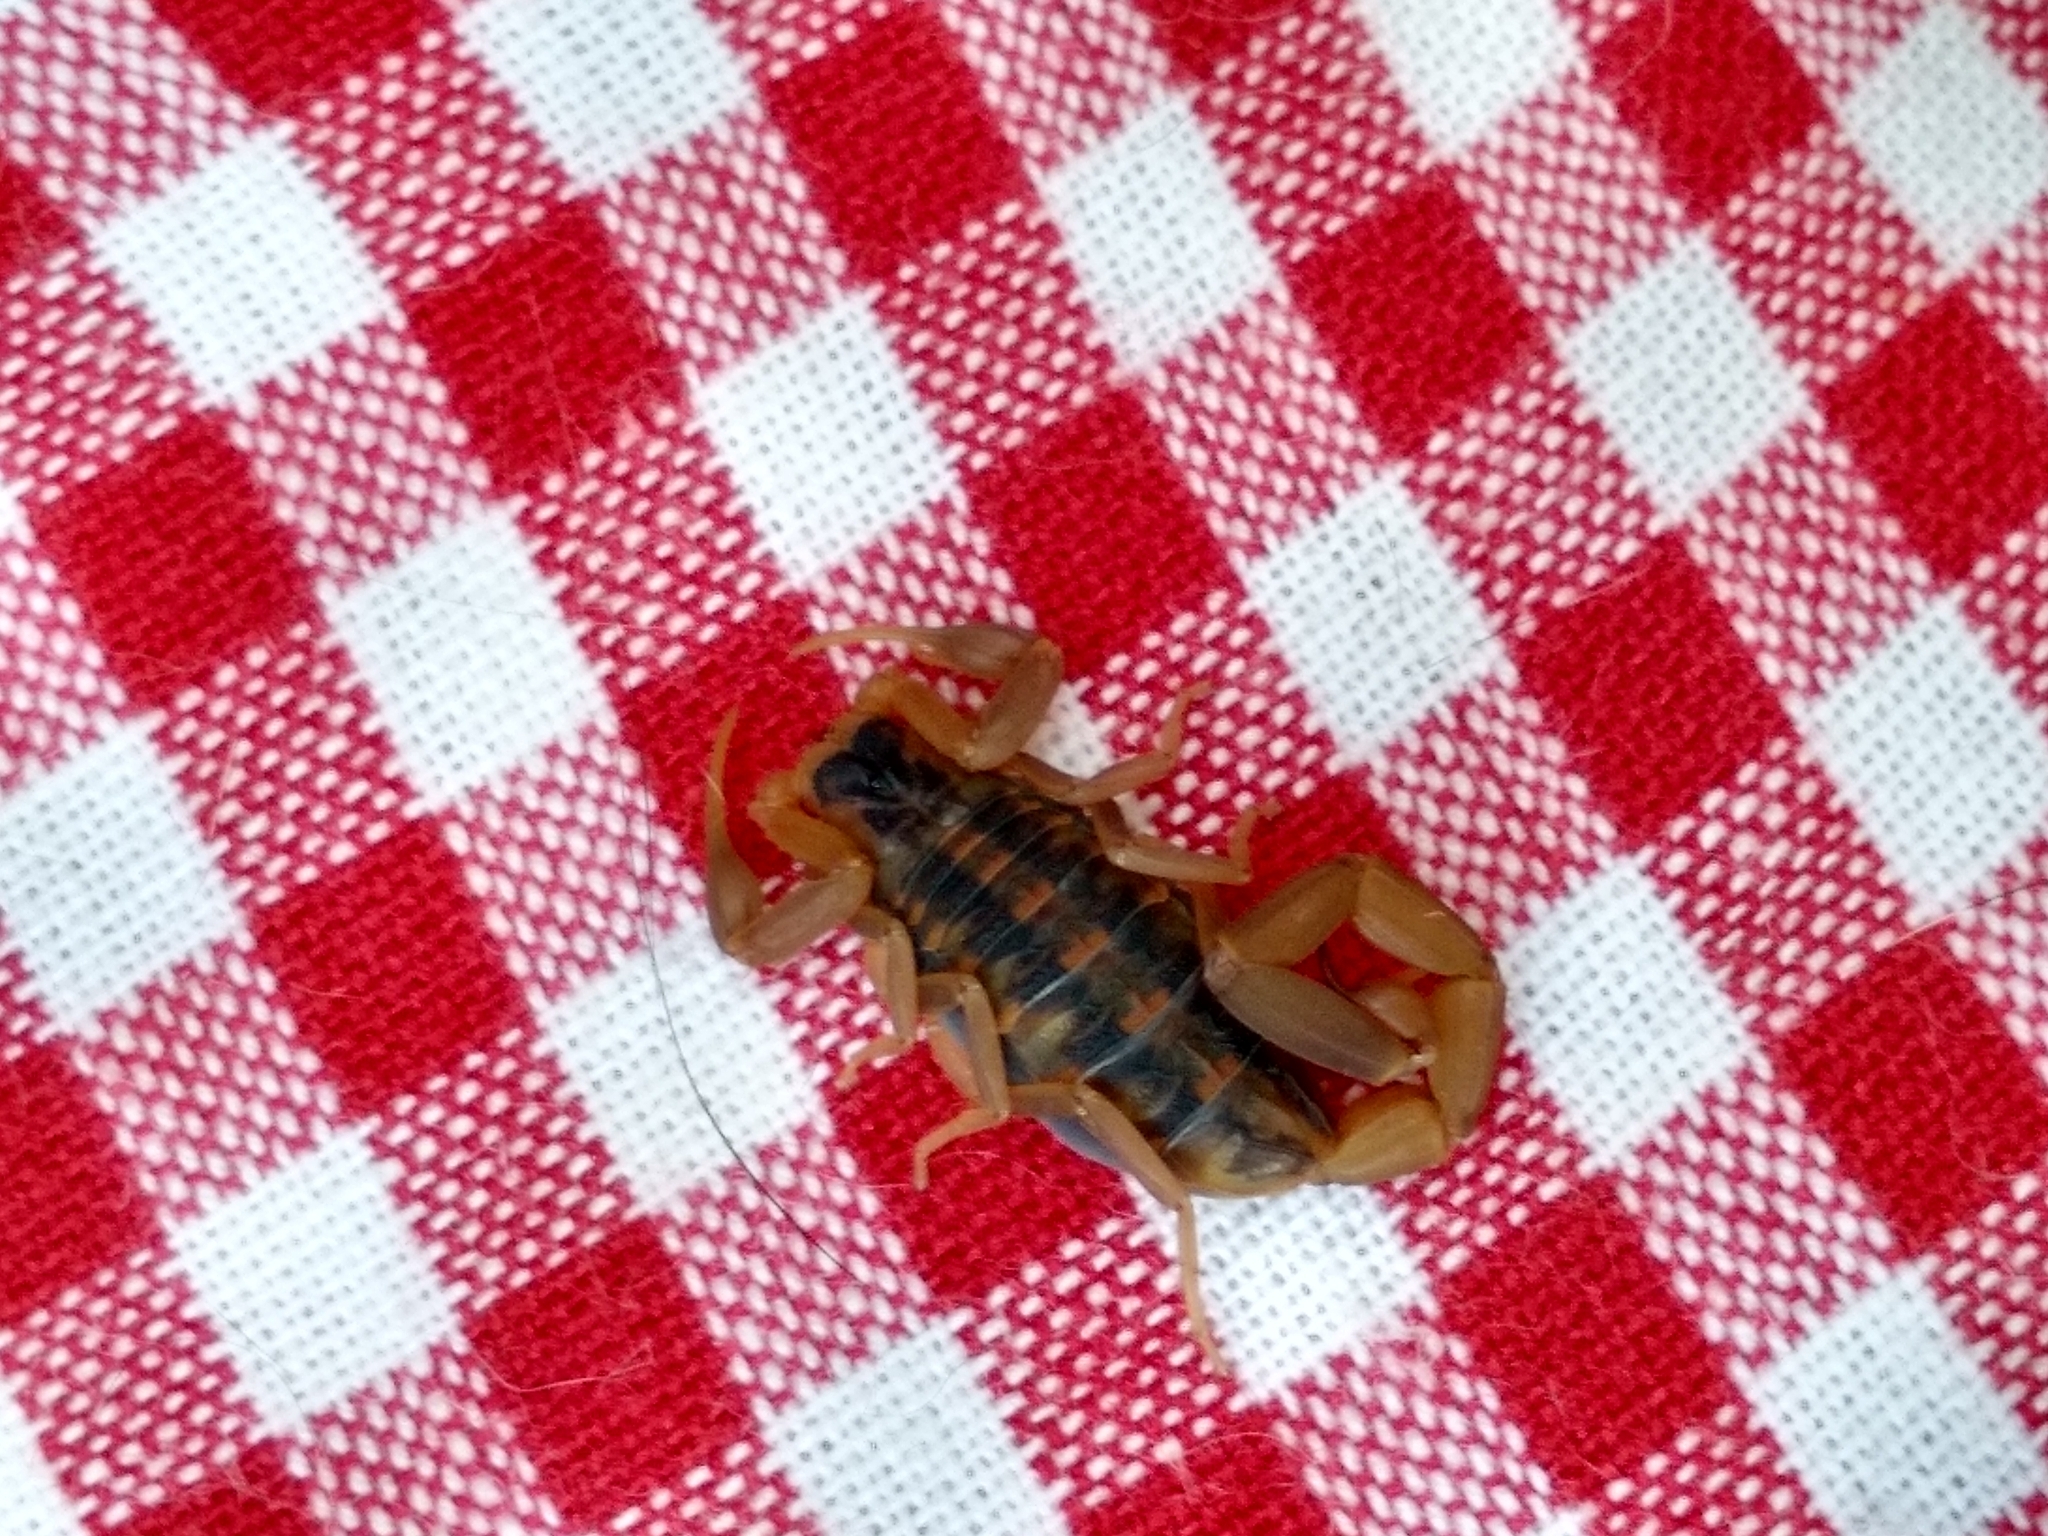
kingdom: Animalia
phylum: Arthropoda
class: Arachnida
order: Scorpiones
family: Buthidae
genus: Centruroides
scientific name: Centruroides vittatus
